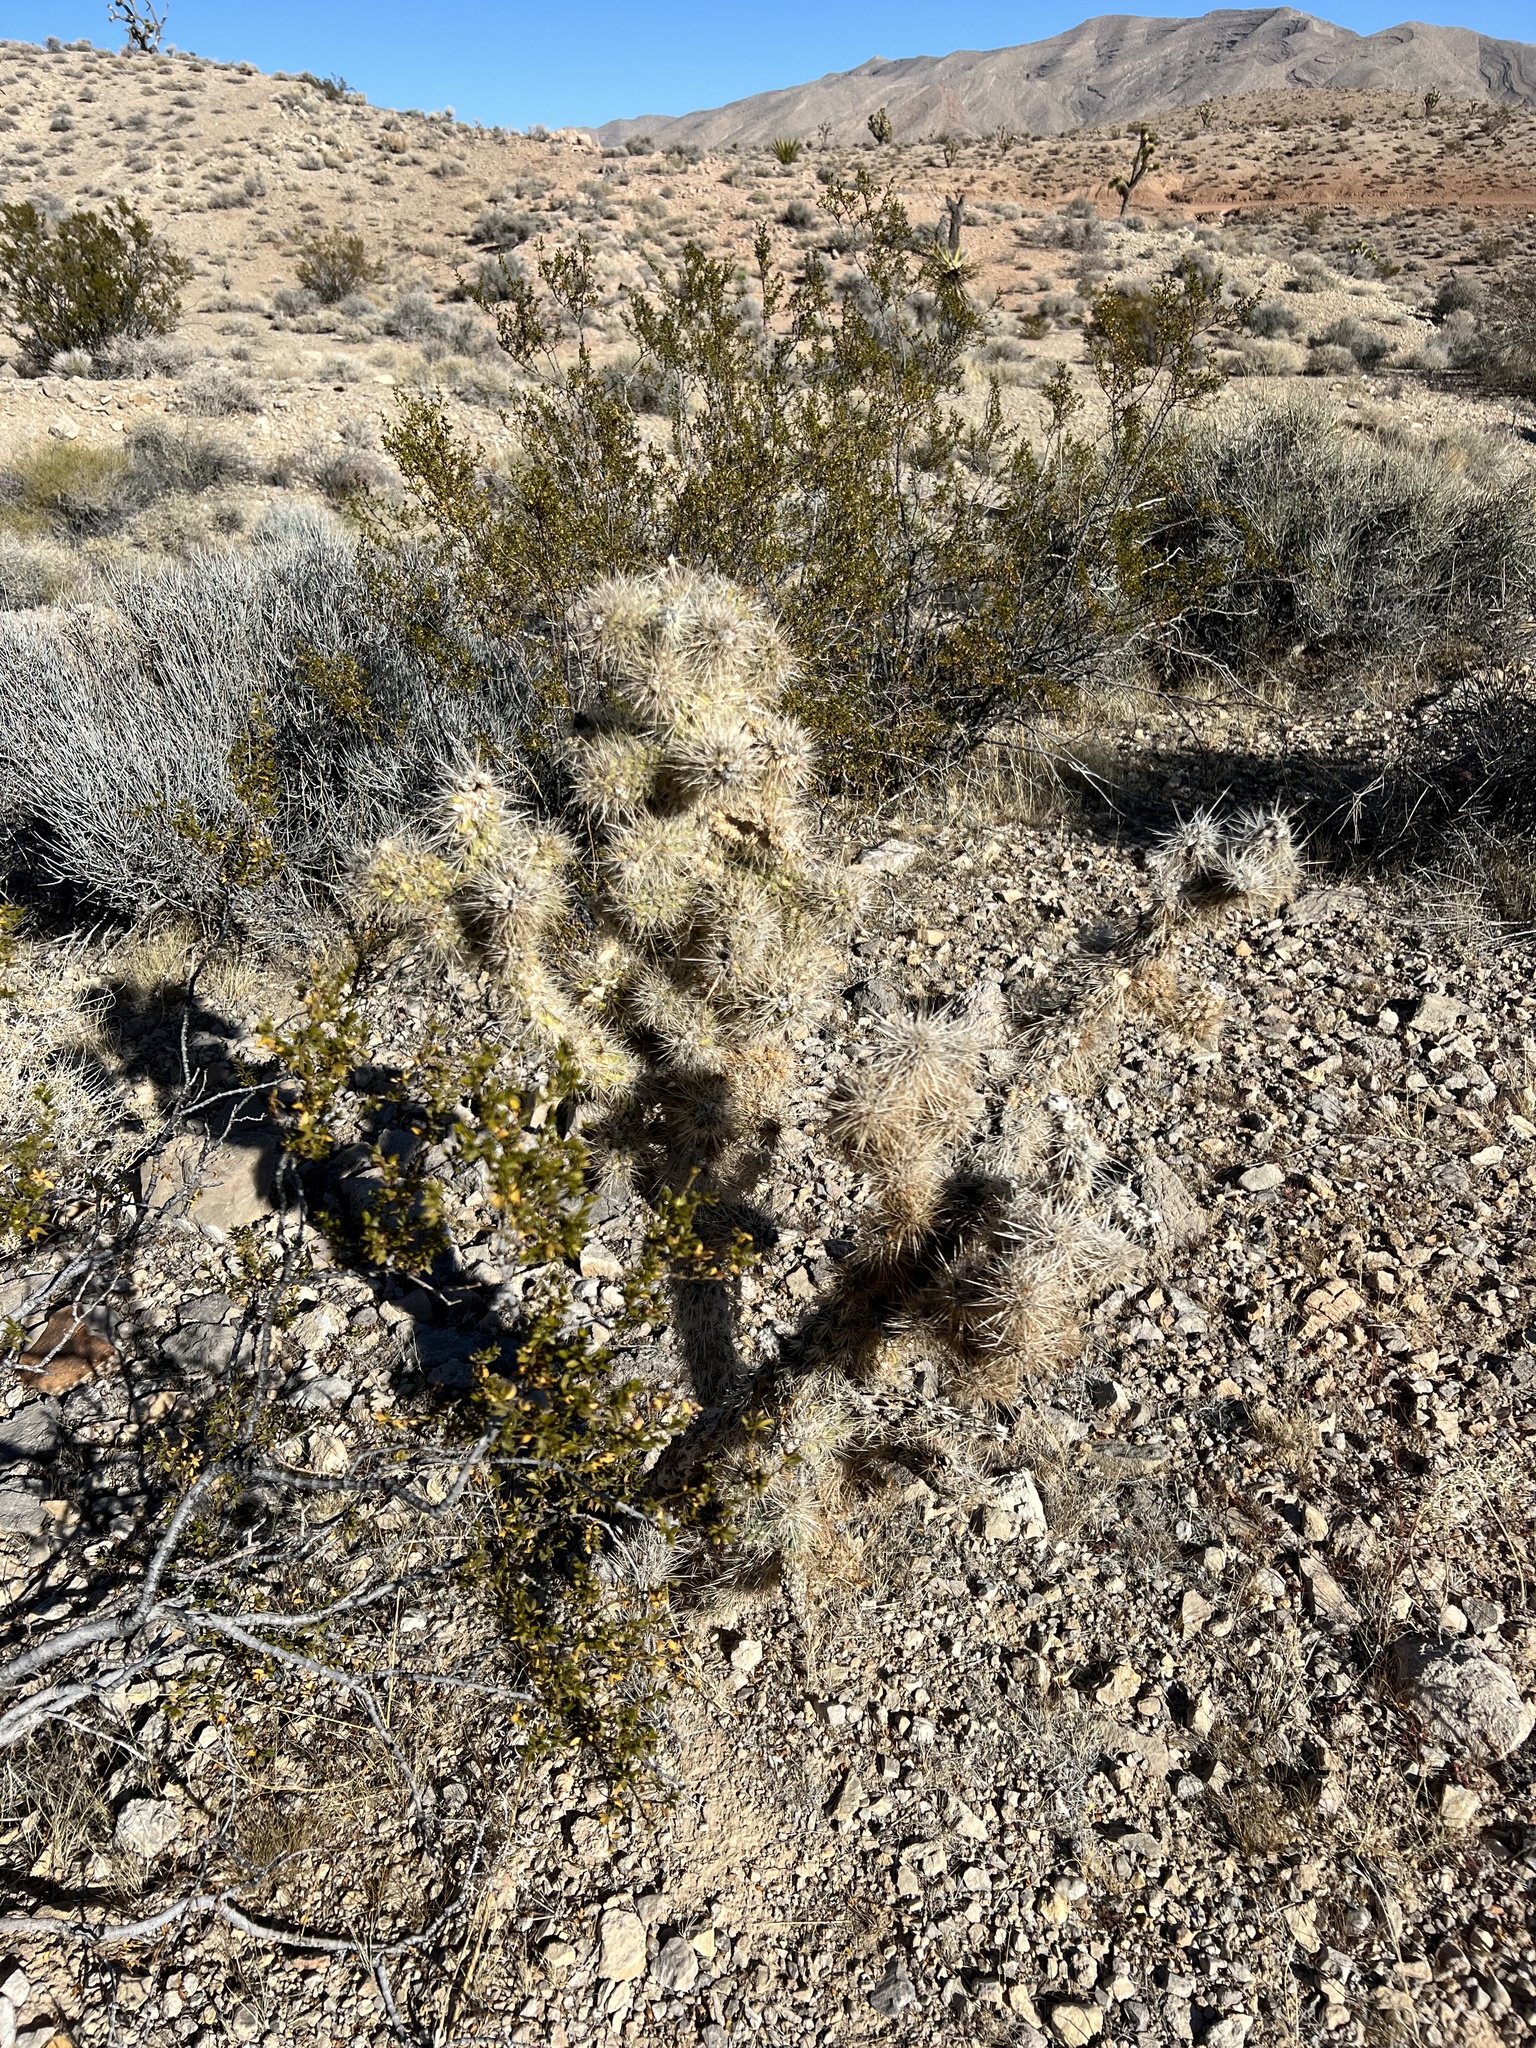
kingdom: Plantae
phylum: Tracheophyta
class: Magnoliopsida
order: Caryophyllales
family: Cactaceae
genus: Cylindropuntia
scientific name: Cylindropuntia echinocarpa
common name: Ground cholla
